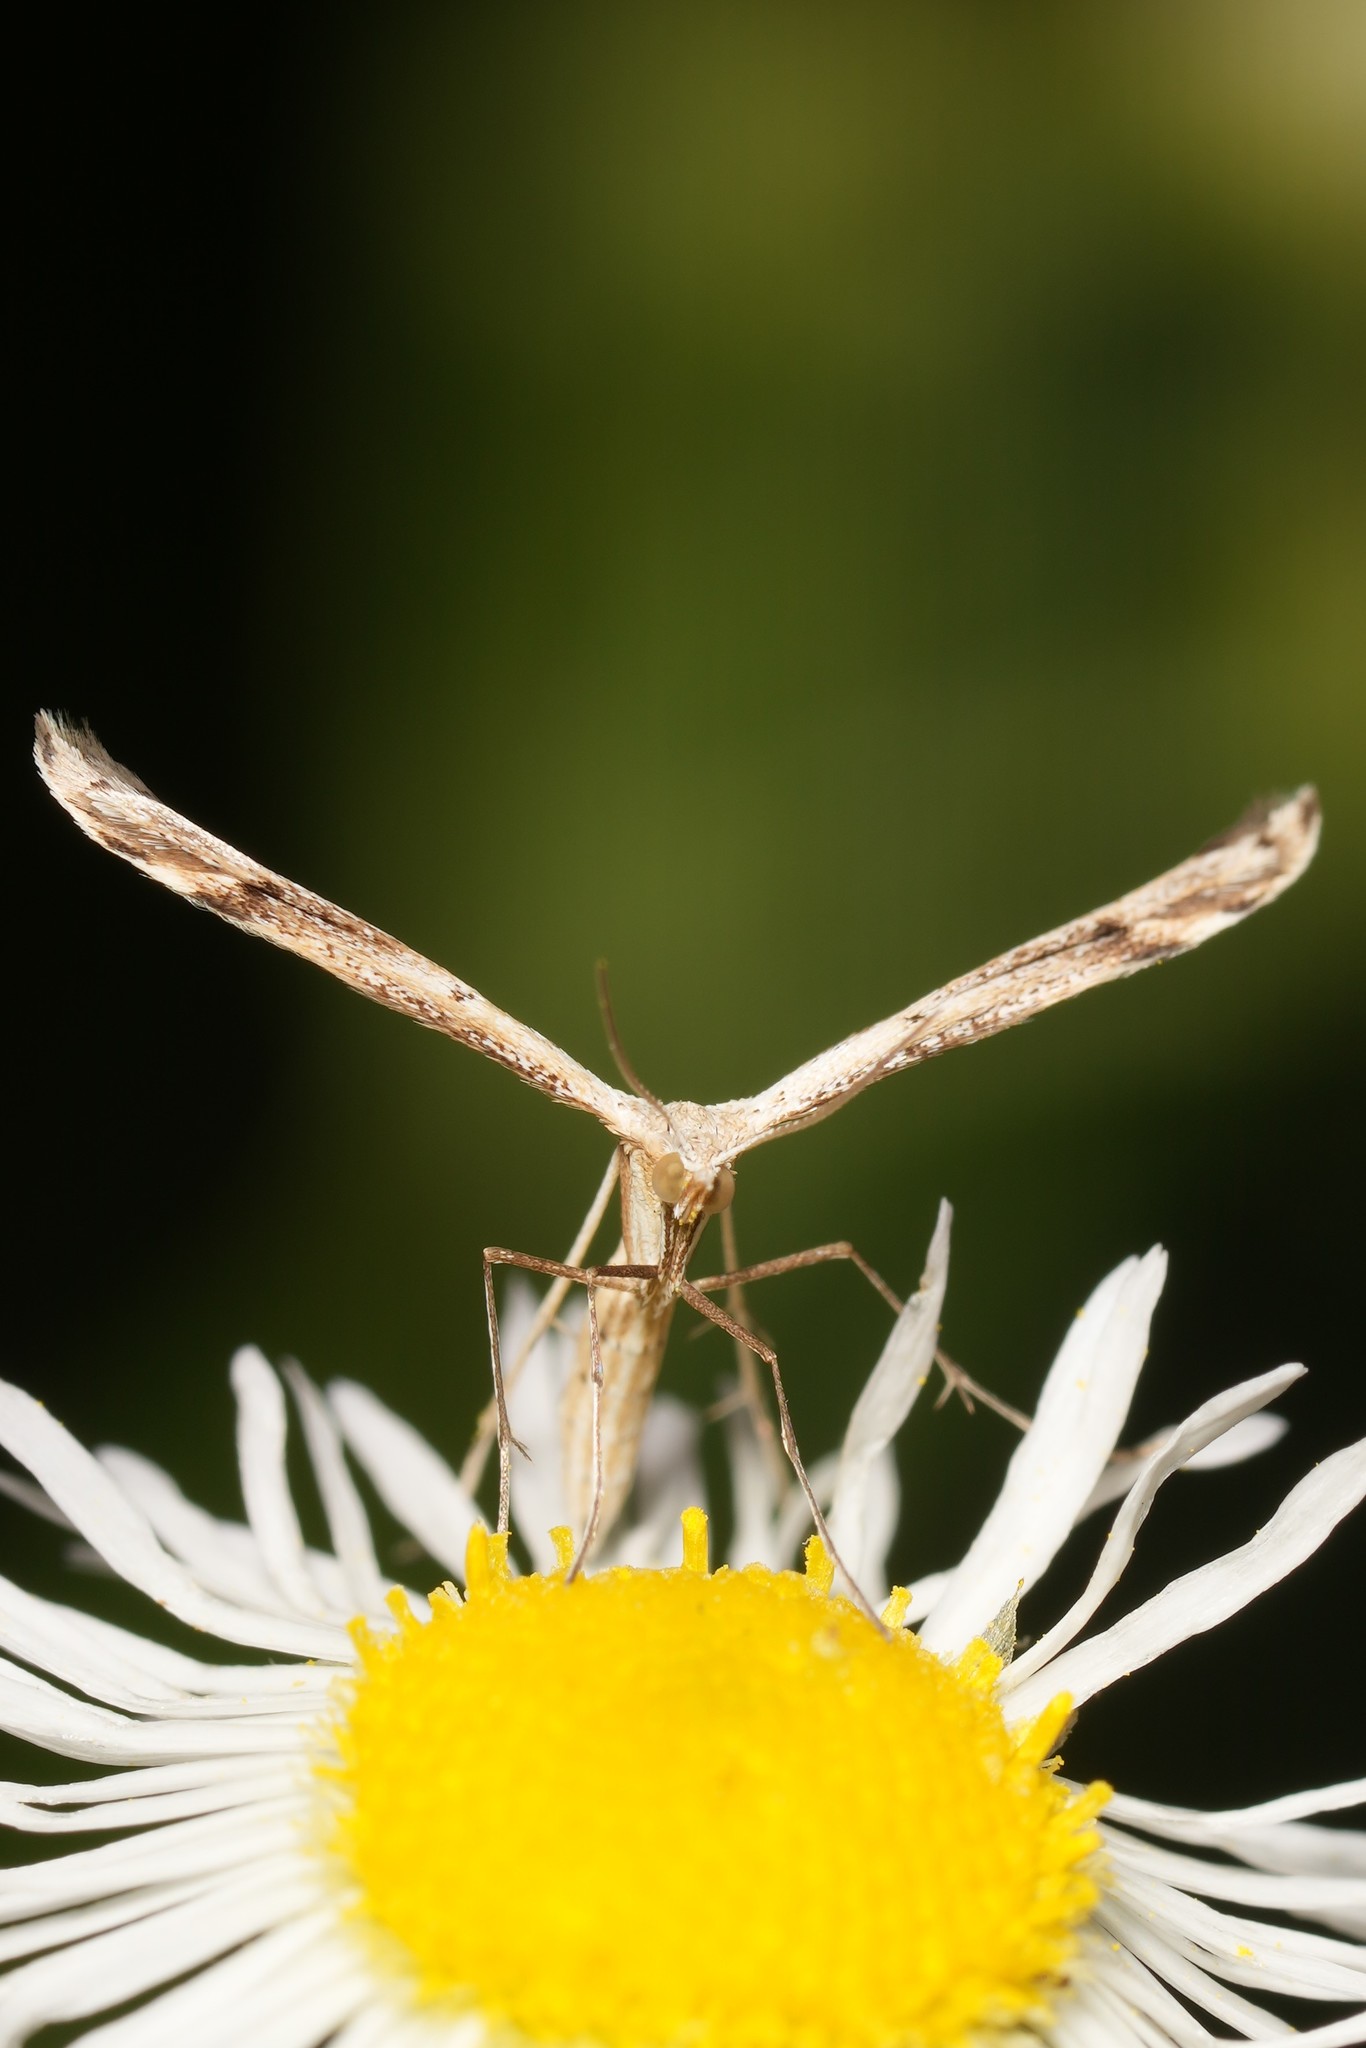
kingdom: Animalia
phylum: Arthropoda
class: Insecta
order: Lepidoptera
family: Pterophoridae
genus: Lioptilodes
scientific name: Lioptilodes albistriolatus
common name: Moth
